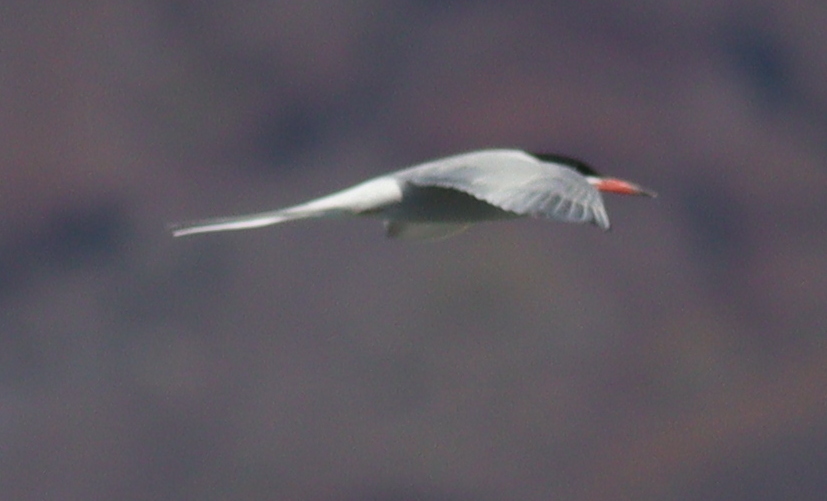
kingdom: Animalia
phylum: Chordata
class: Aves
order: Charadriiformes
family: Laridae
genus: Sterna
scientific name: Sterna hirundo
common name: Common tern
